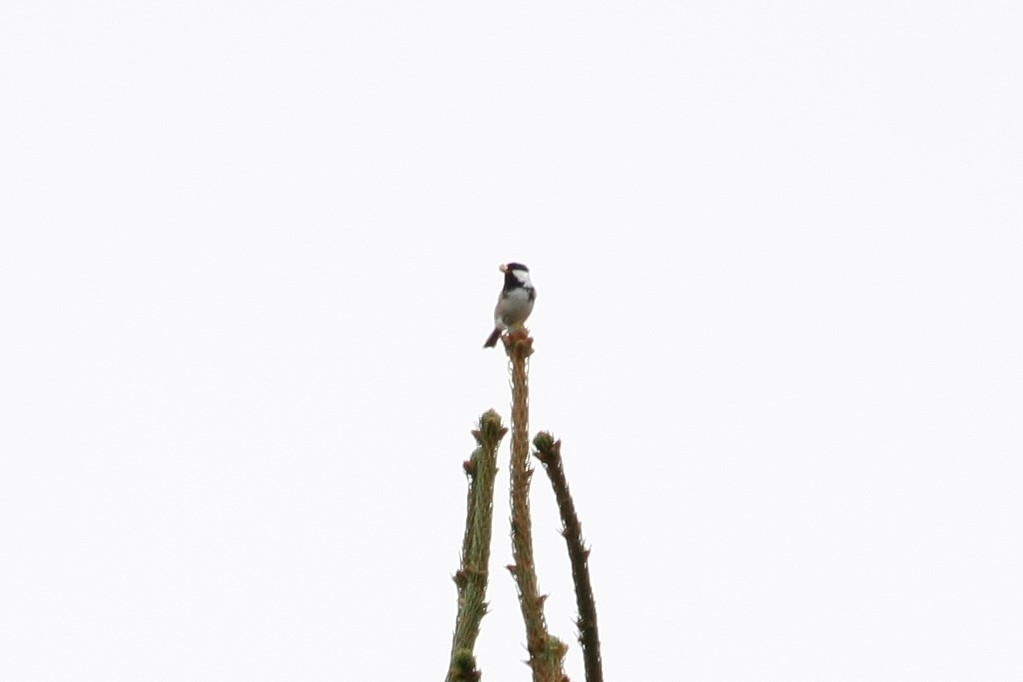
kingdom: Animalia
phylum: Chordata
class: Aves
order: Passeriformes
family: Paridae
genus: Periparus
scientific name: Periparus ater
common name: Coal tit
